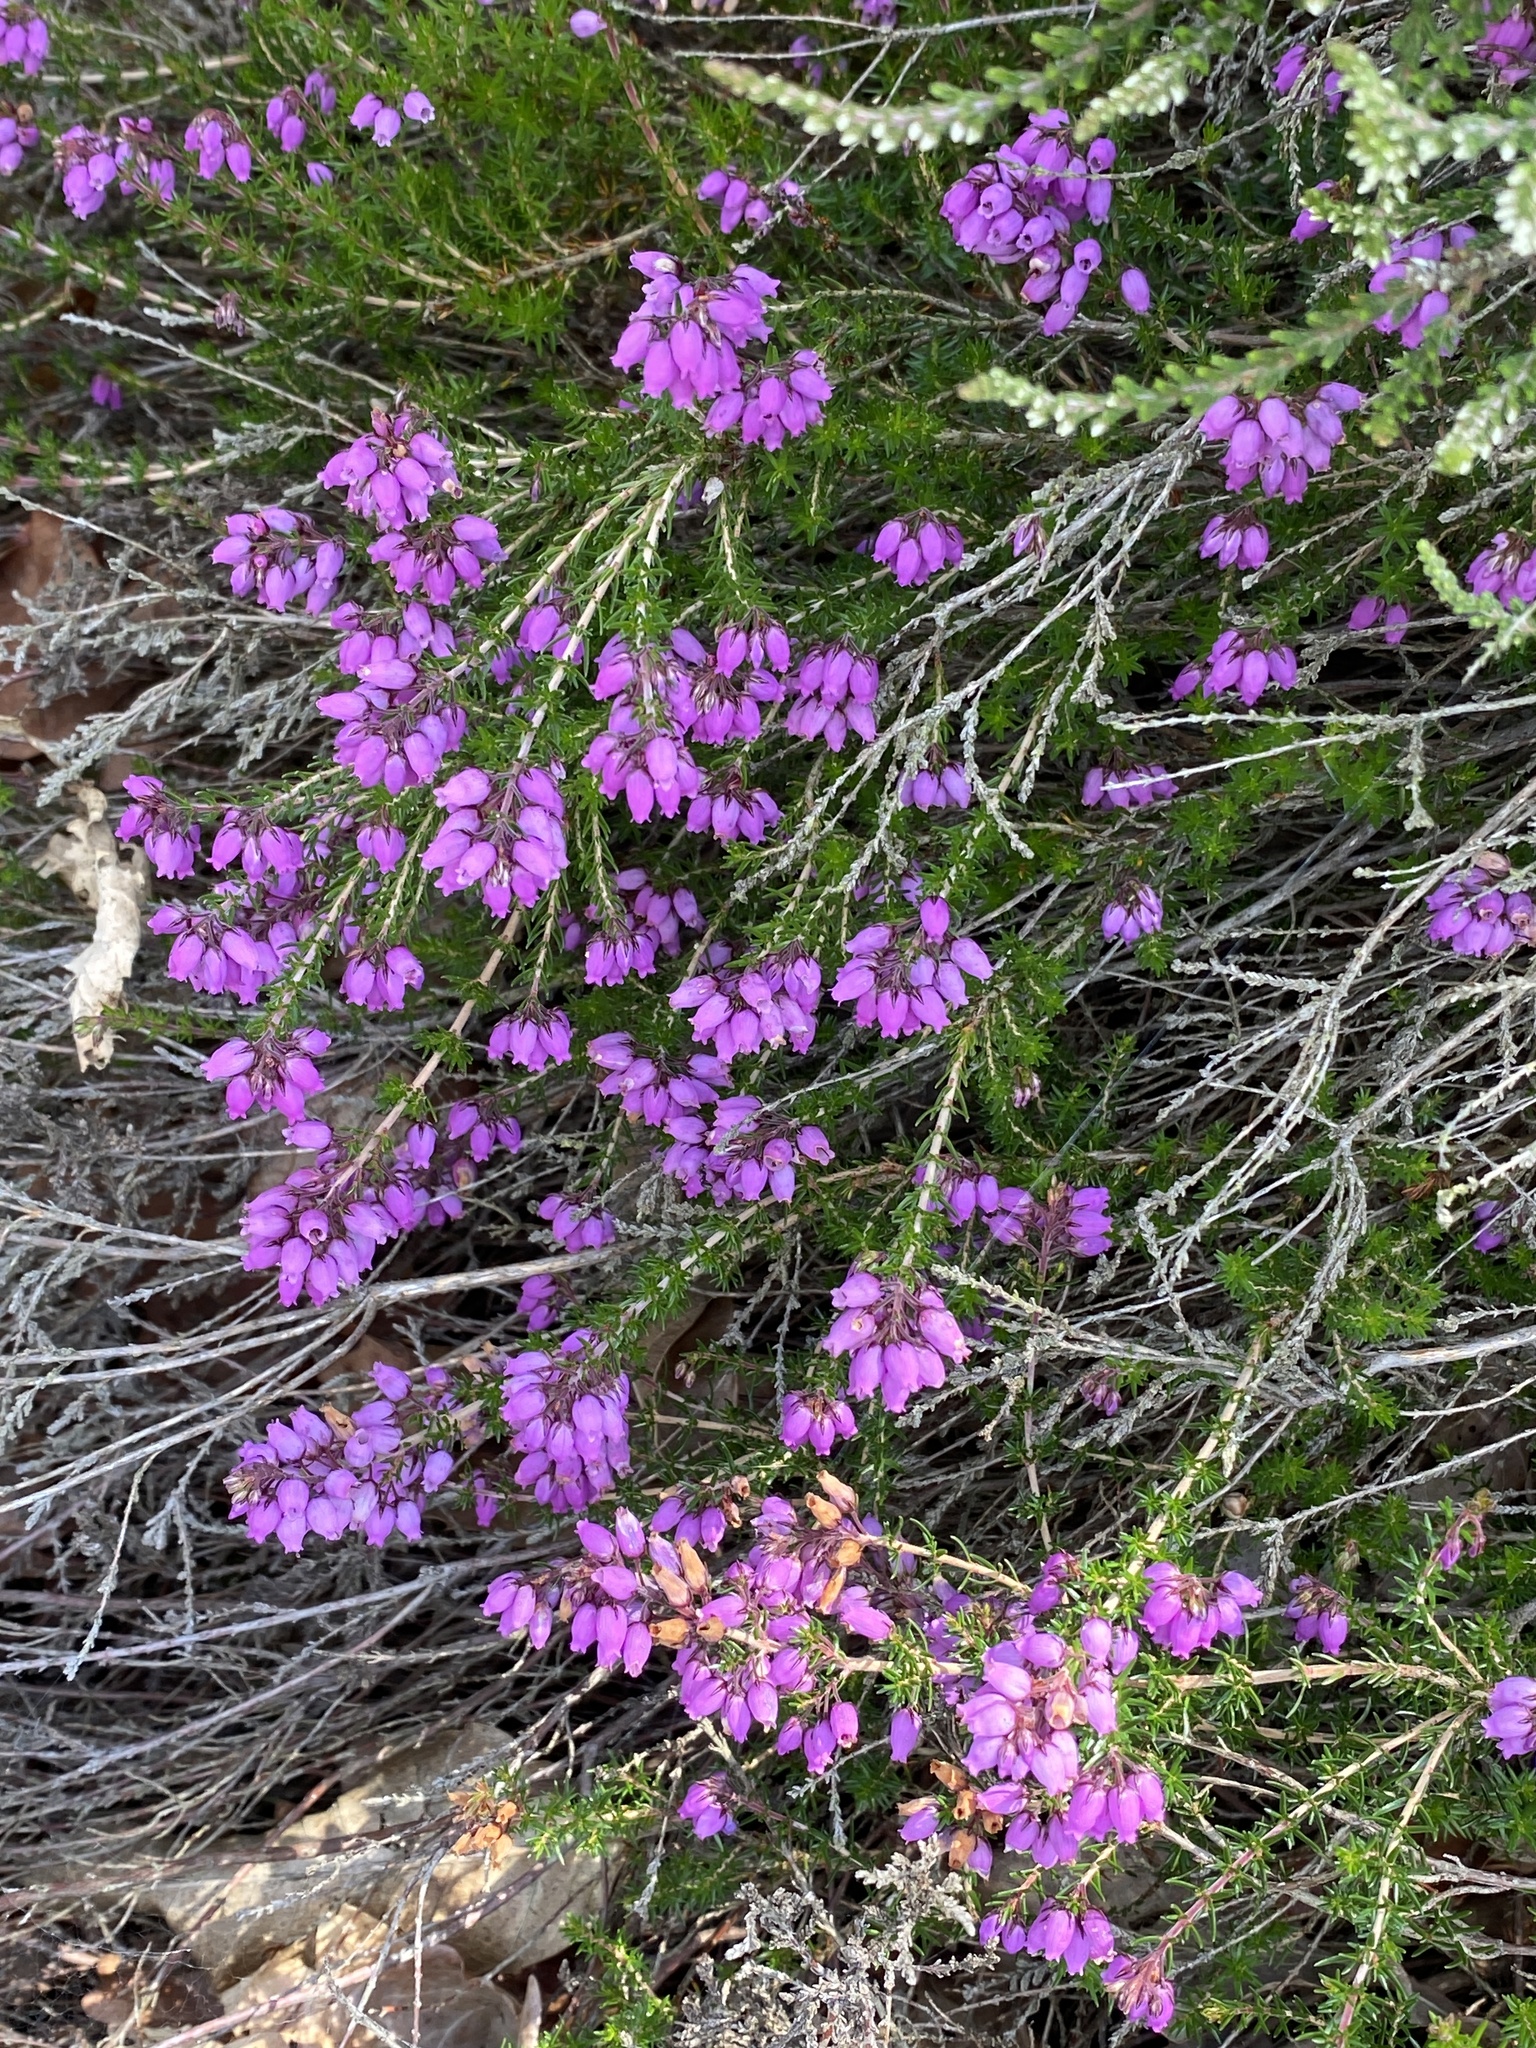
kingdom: Plantae
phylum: Tracheophyta
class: Magnoliopsida
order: Ericales
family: Ericaceae
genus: Erica
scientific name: Erica cinerea
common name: Bell heather
